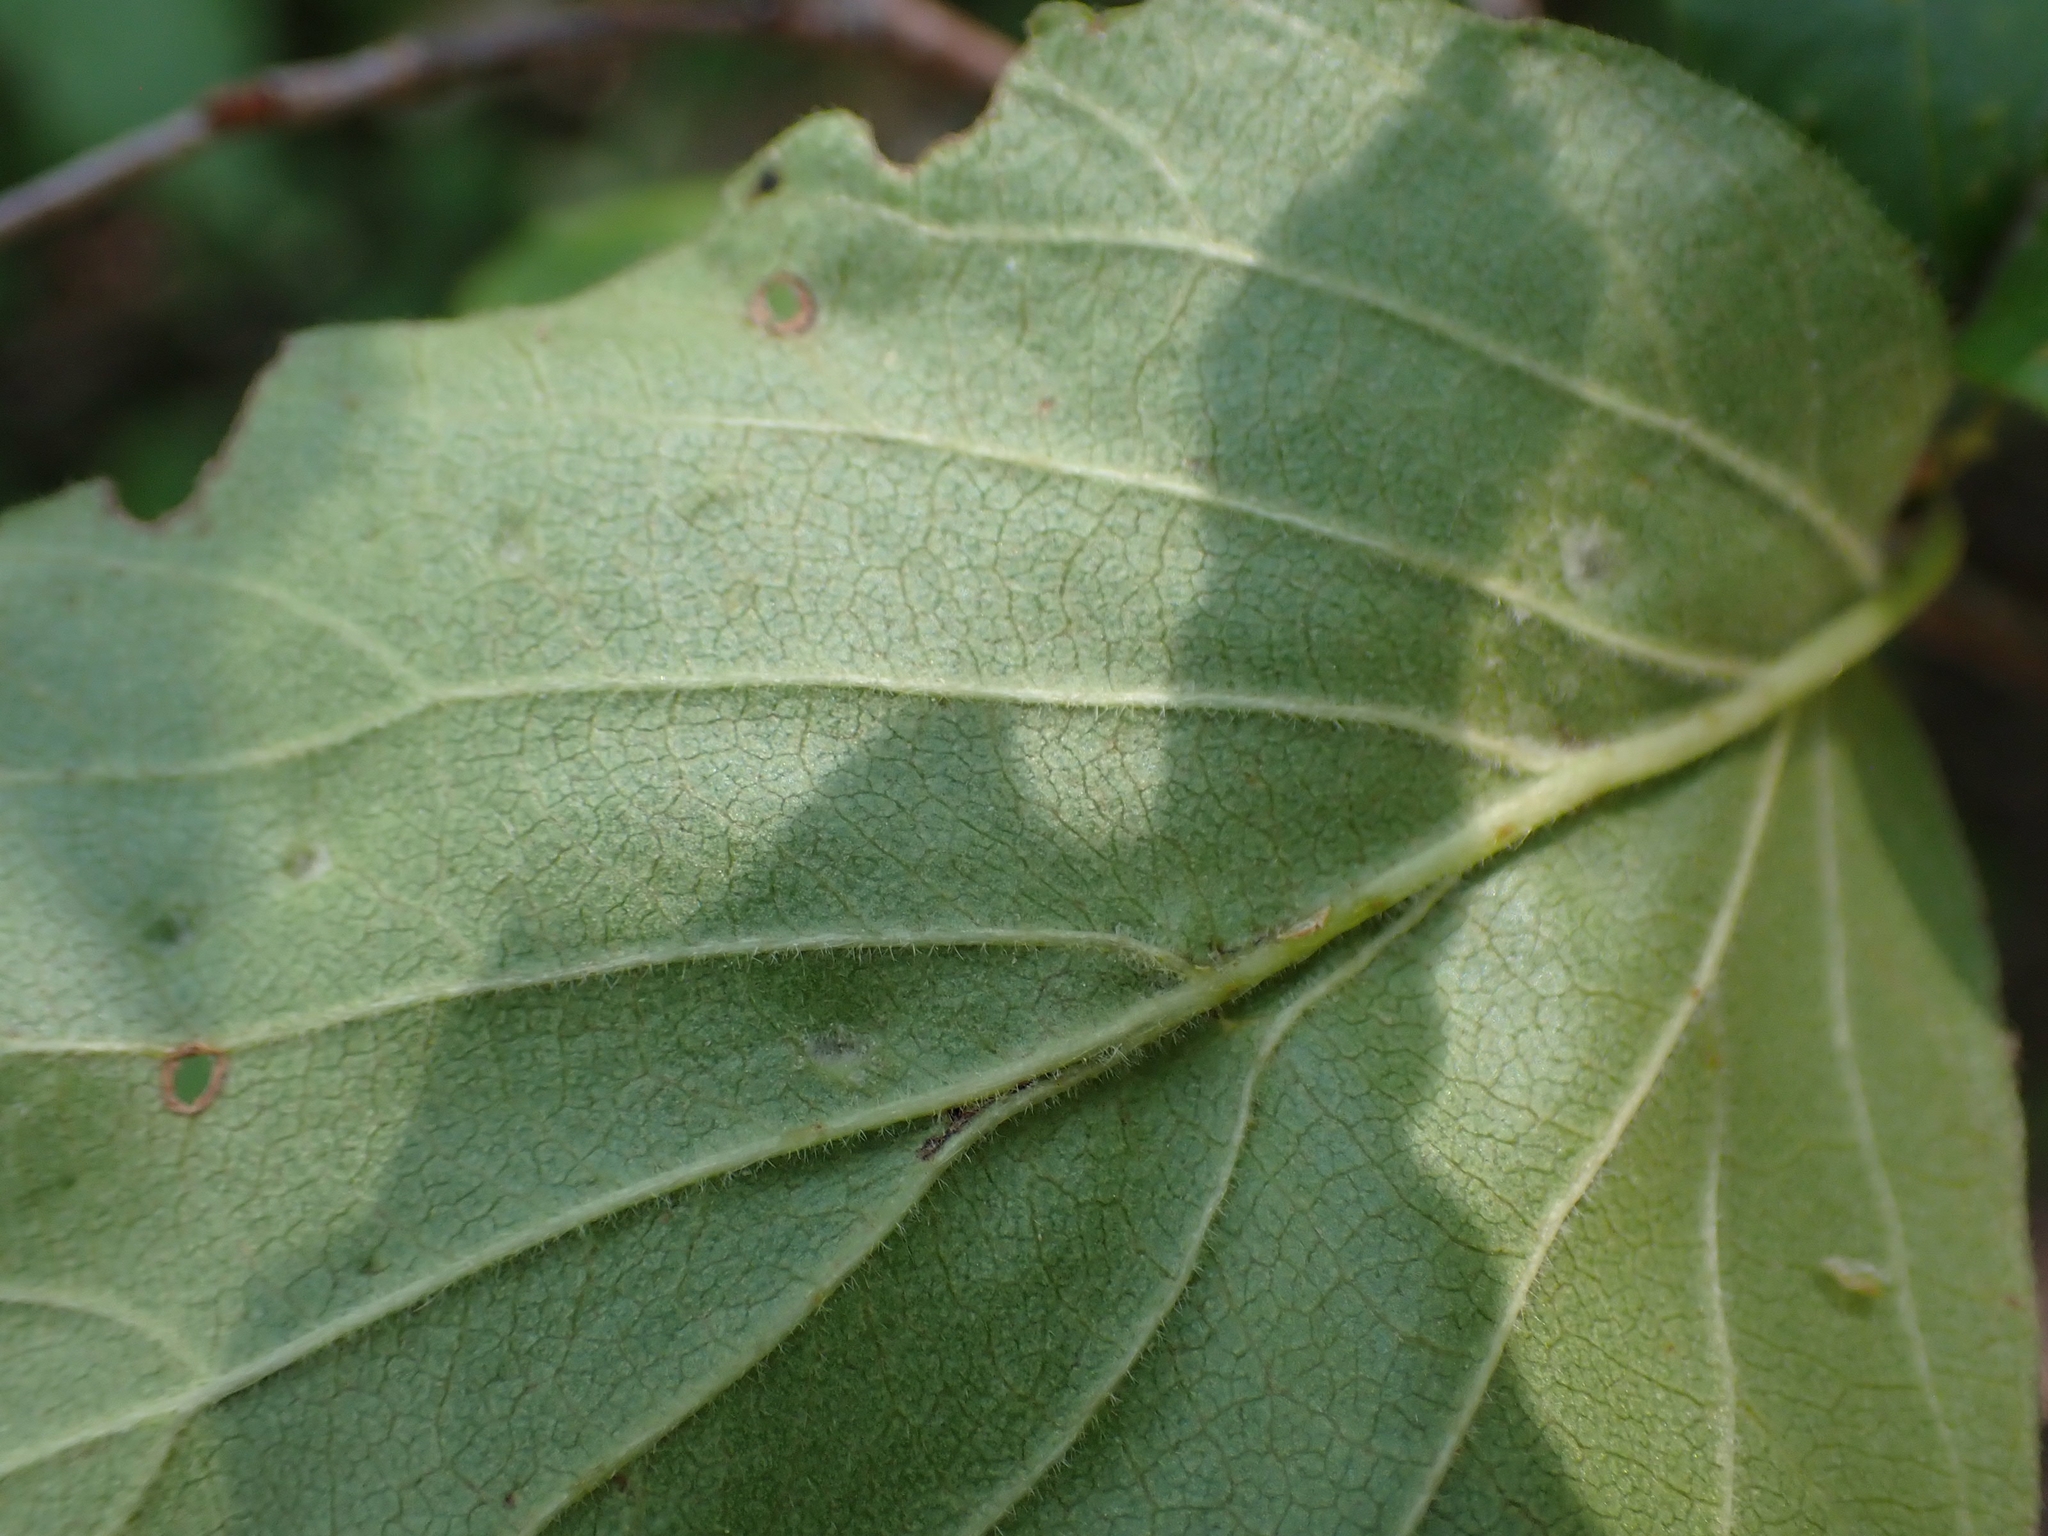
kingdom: Animalia
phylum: Arthropoda
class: Arachnida
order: Trombidiformes
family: Eriophyidae
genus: Eriophyes
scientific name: Eriophyes
